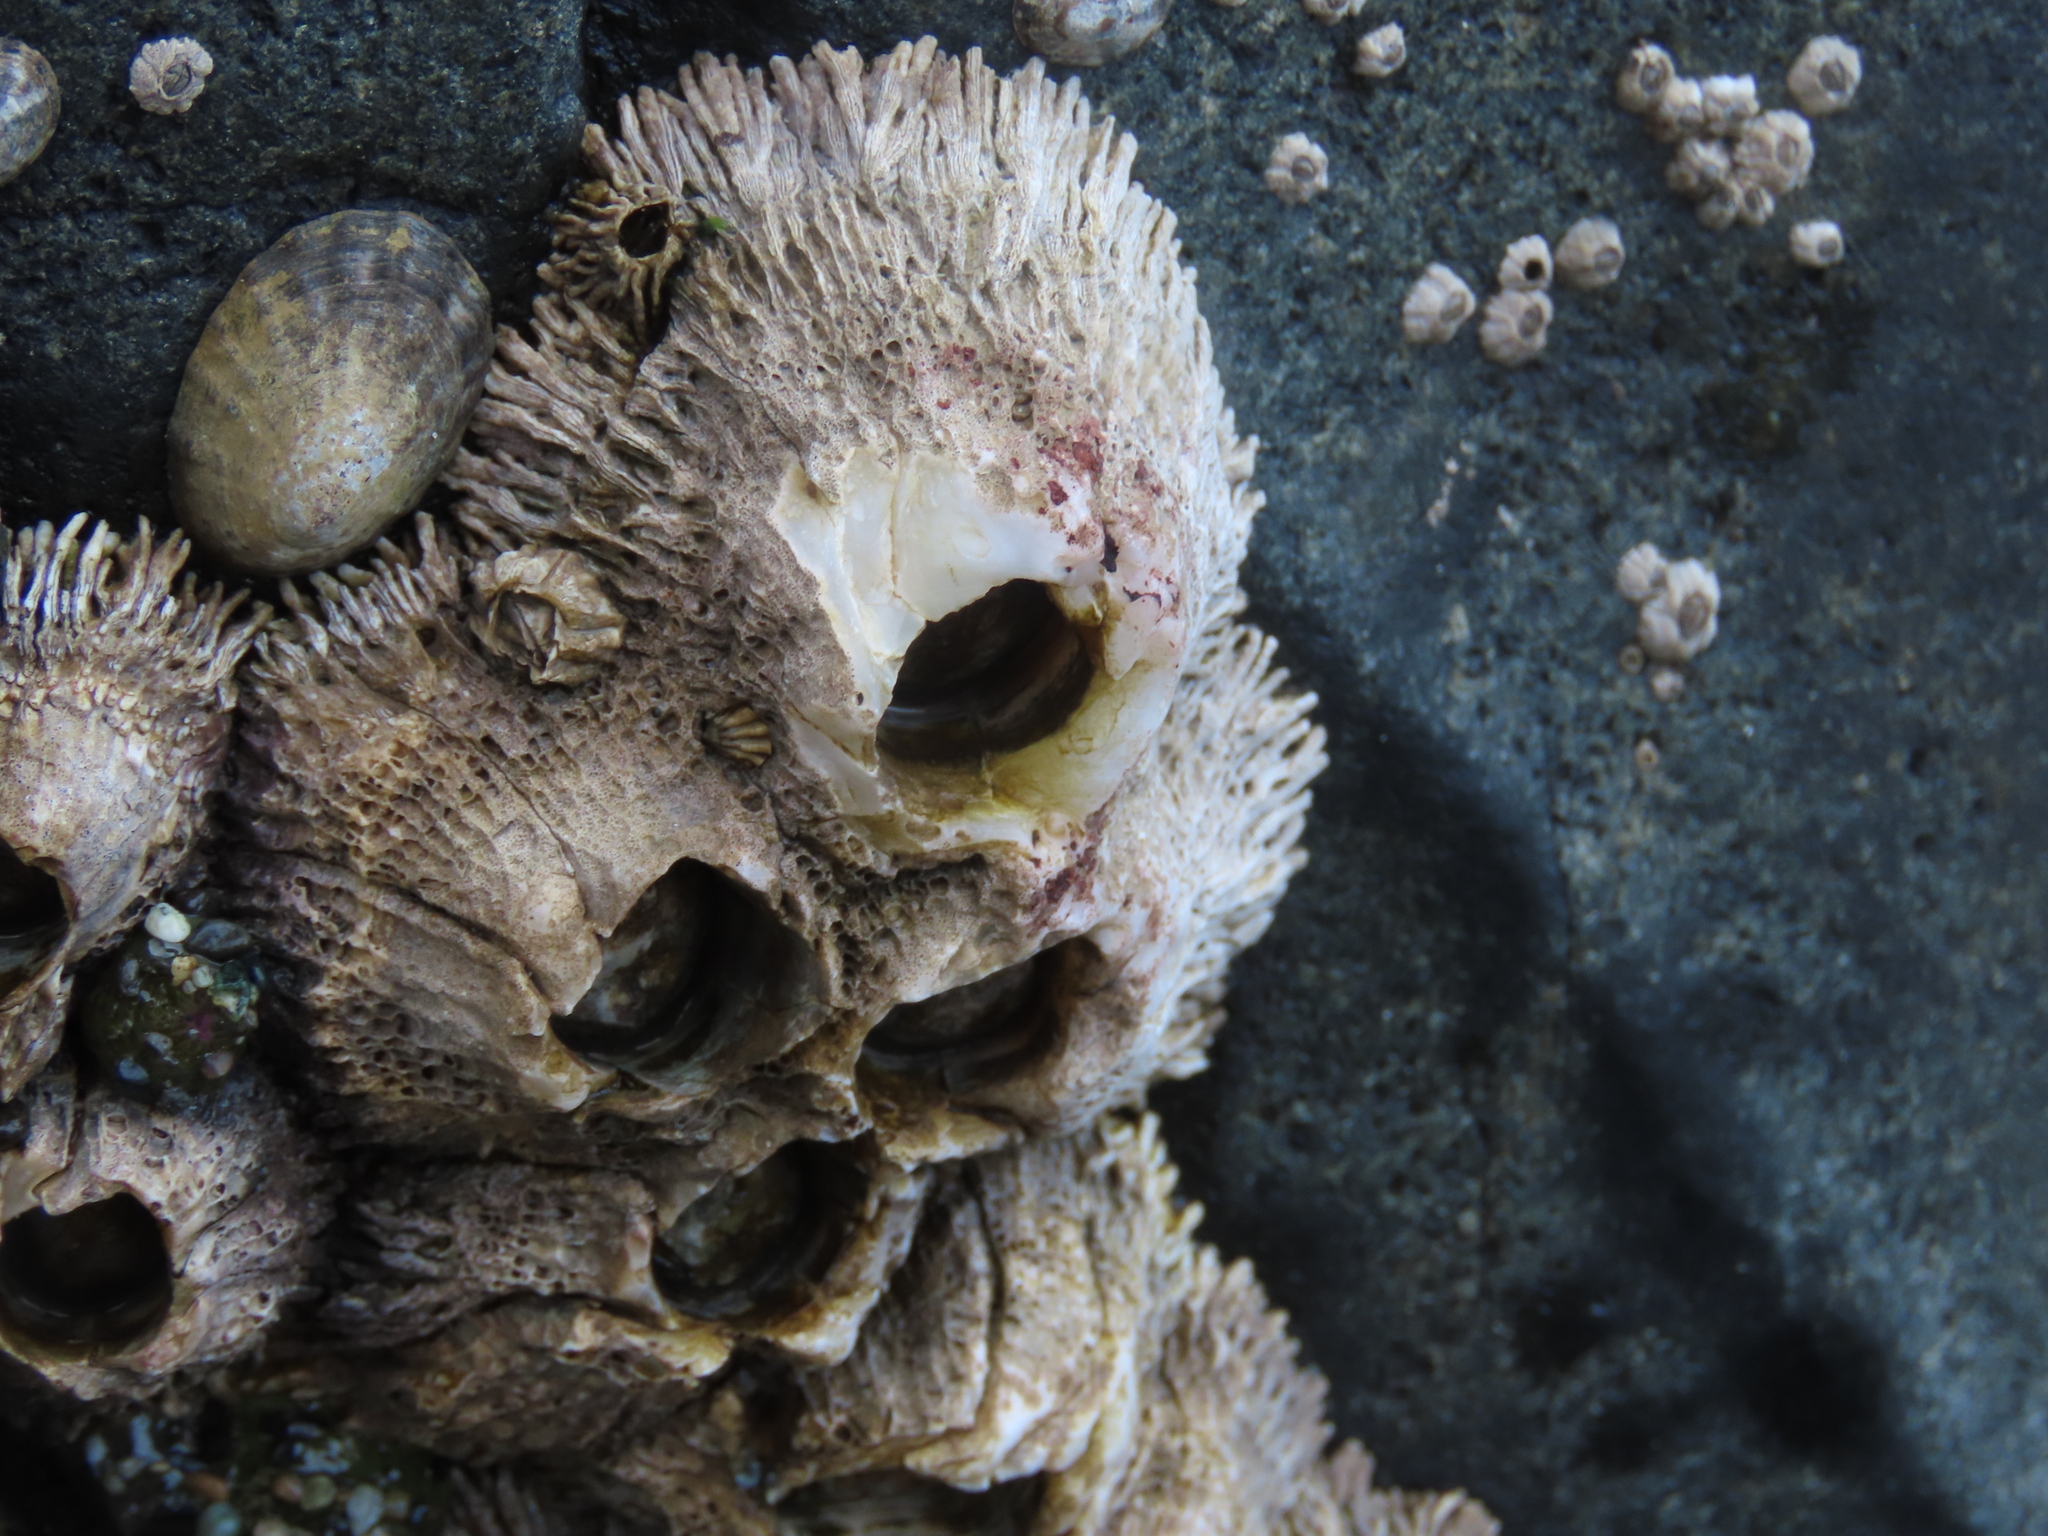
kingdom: Animalia
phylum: Arthropoda
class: Maxillopoda
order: Sessilia
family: Archaeobalanidae
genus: Semibalanus
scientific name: Semibalanus cariosus
